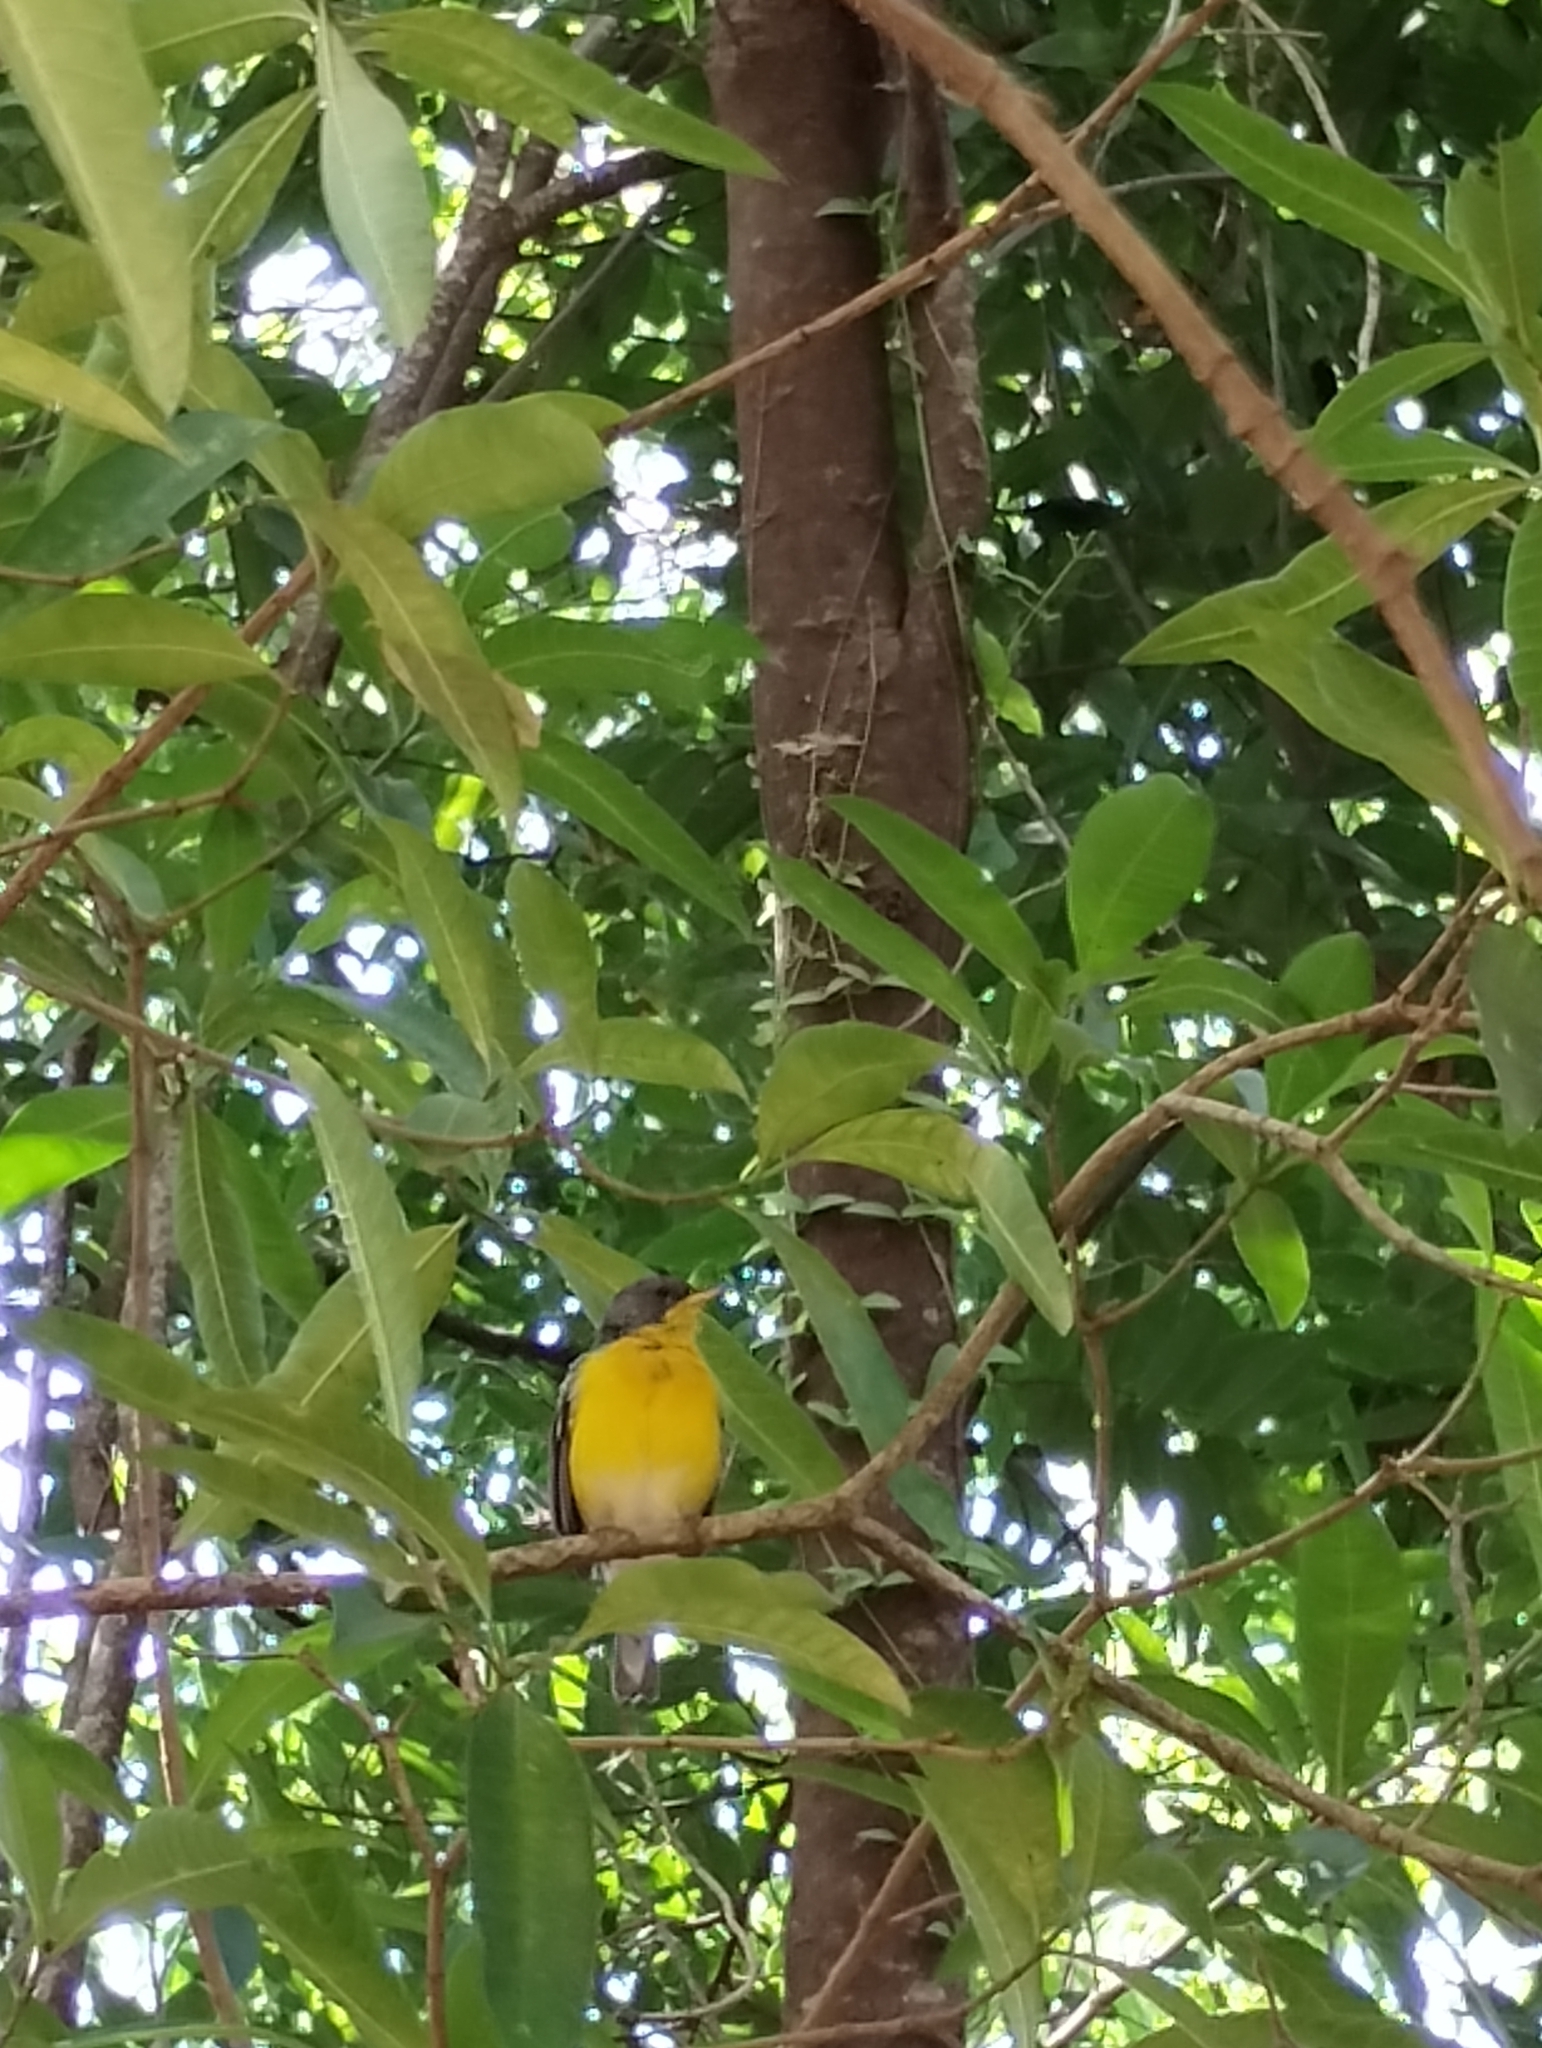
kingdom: Animalia
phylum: Chordata
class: Aves
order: Passeriformes
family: Parulidae
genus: Setophaga
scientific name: Setophaga pitiayumi
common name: Tropical parula
